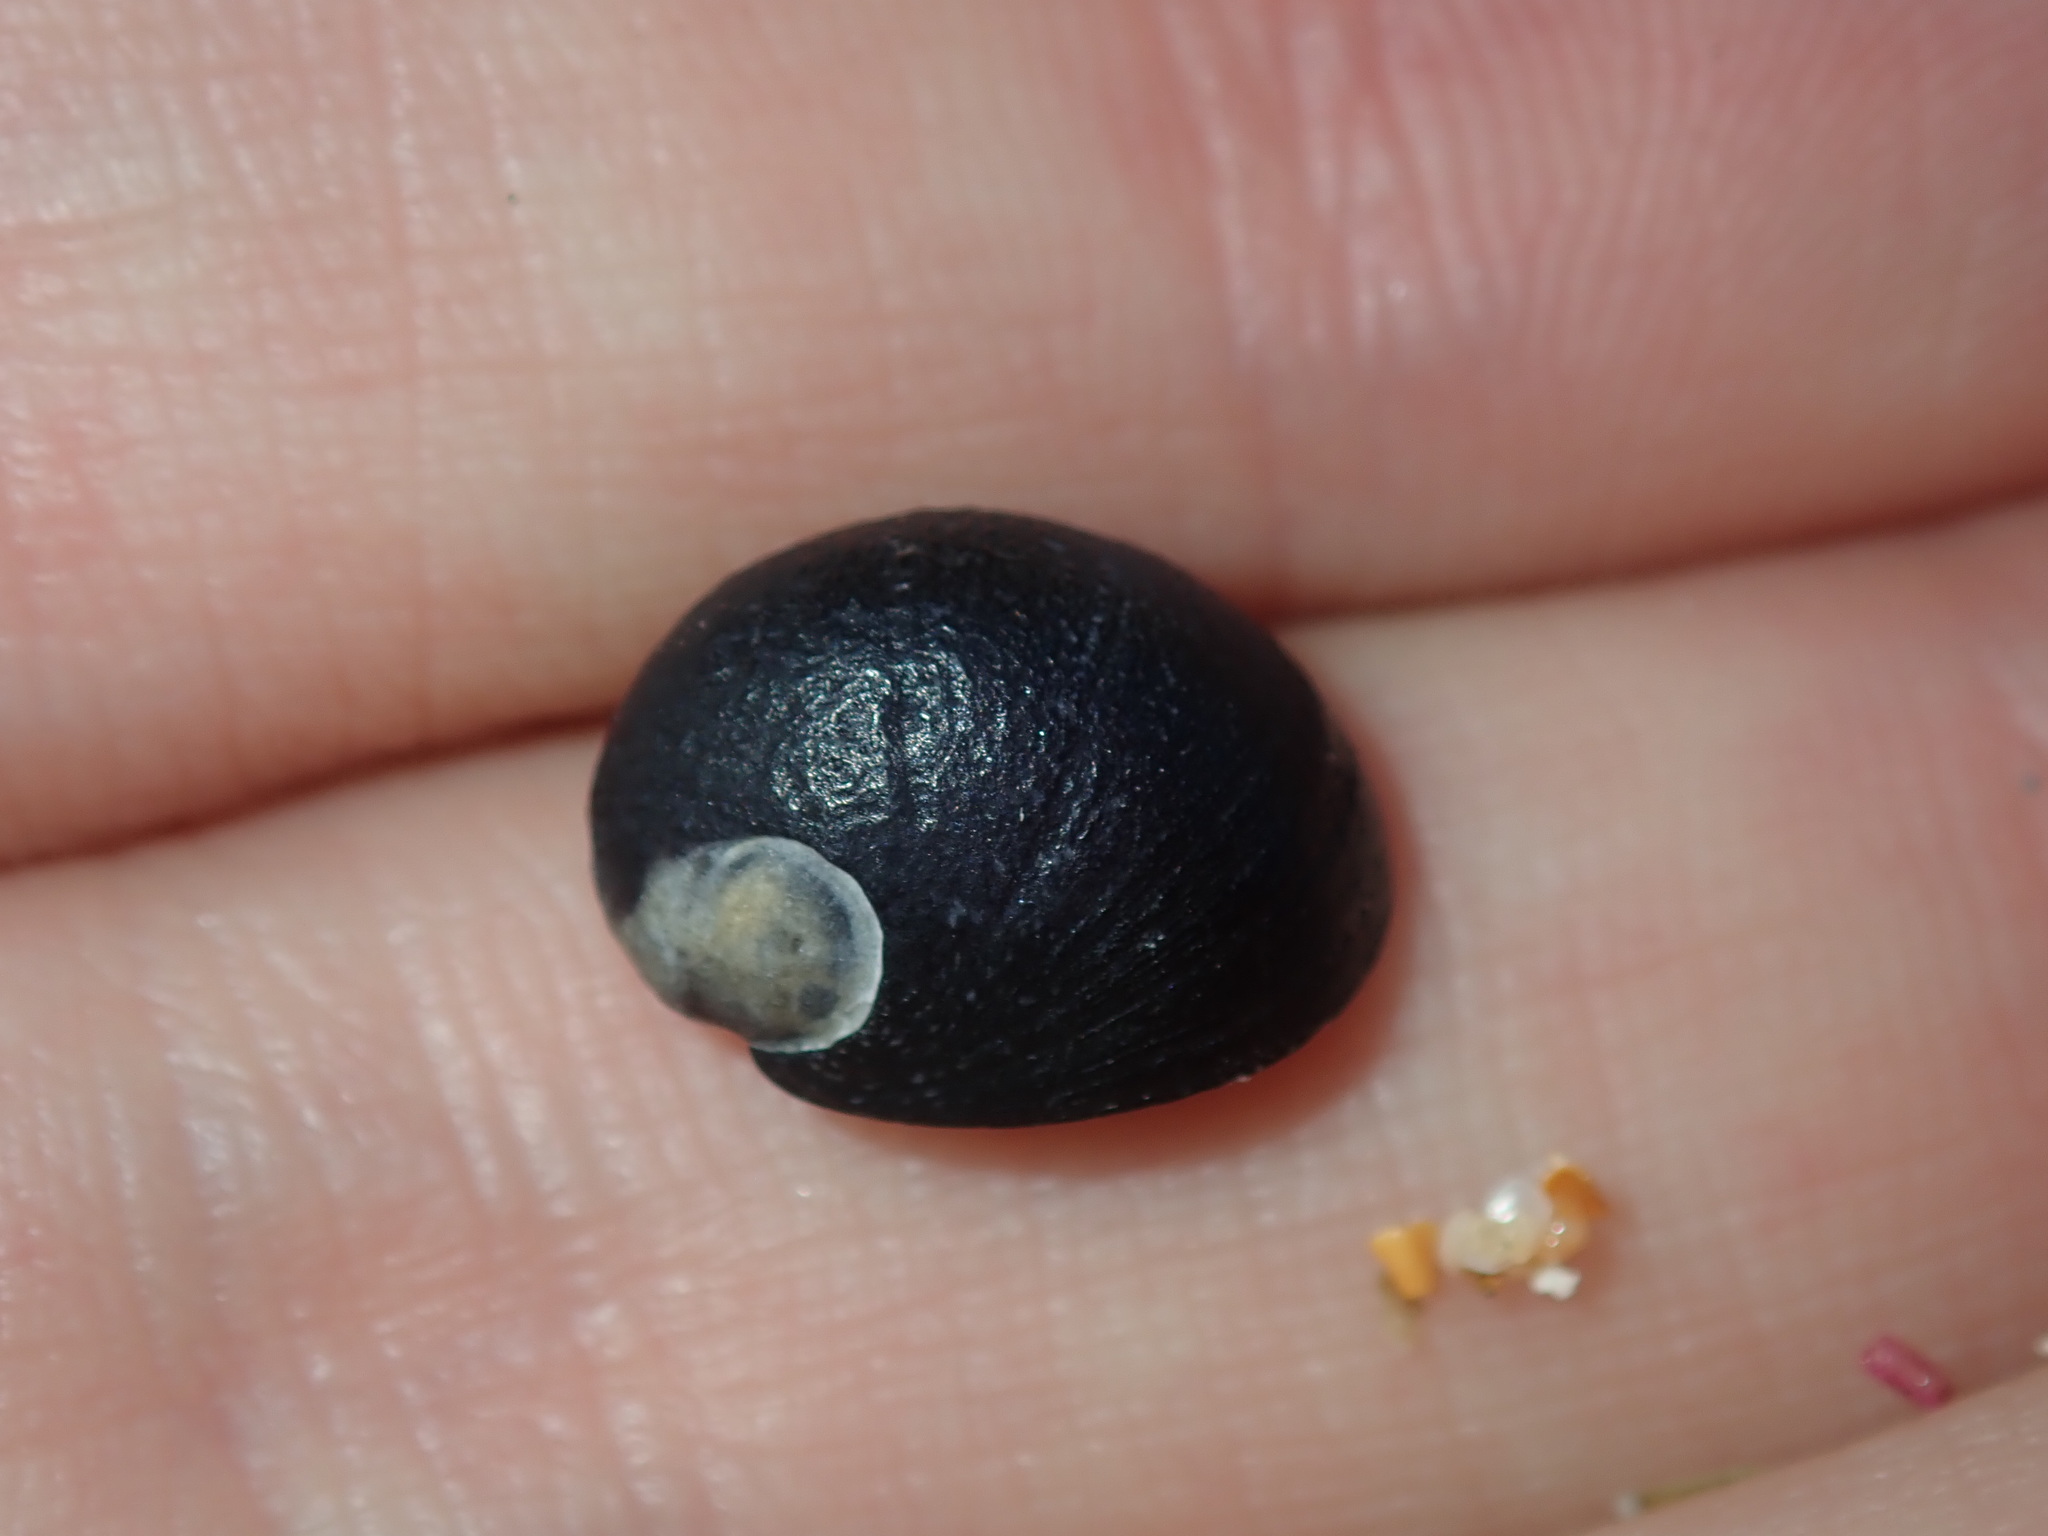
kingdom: Animalia
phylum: Mollusca
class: Gastropoda
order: Cycloneritida
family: Neritidae
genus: Nerita
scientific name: Nerita melanotragus
